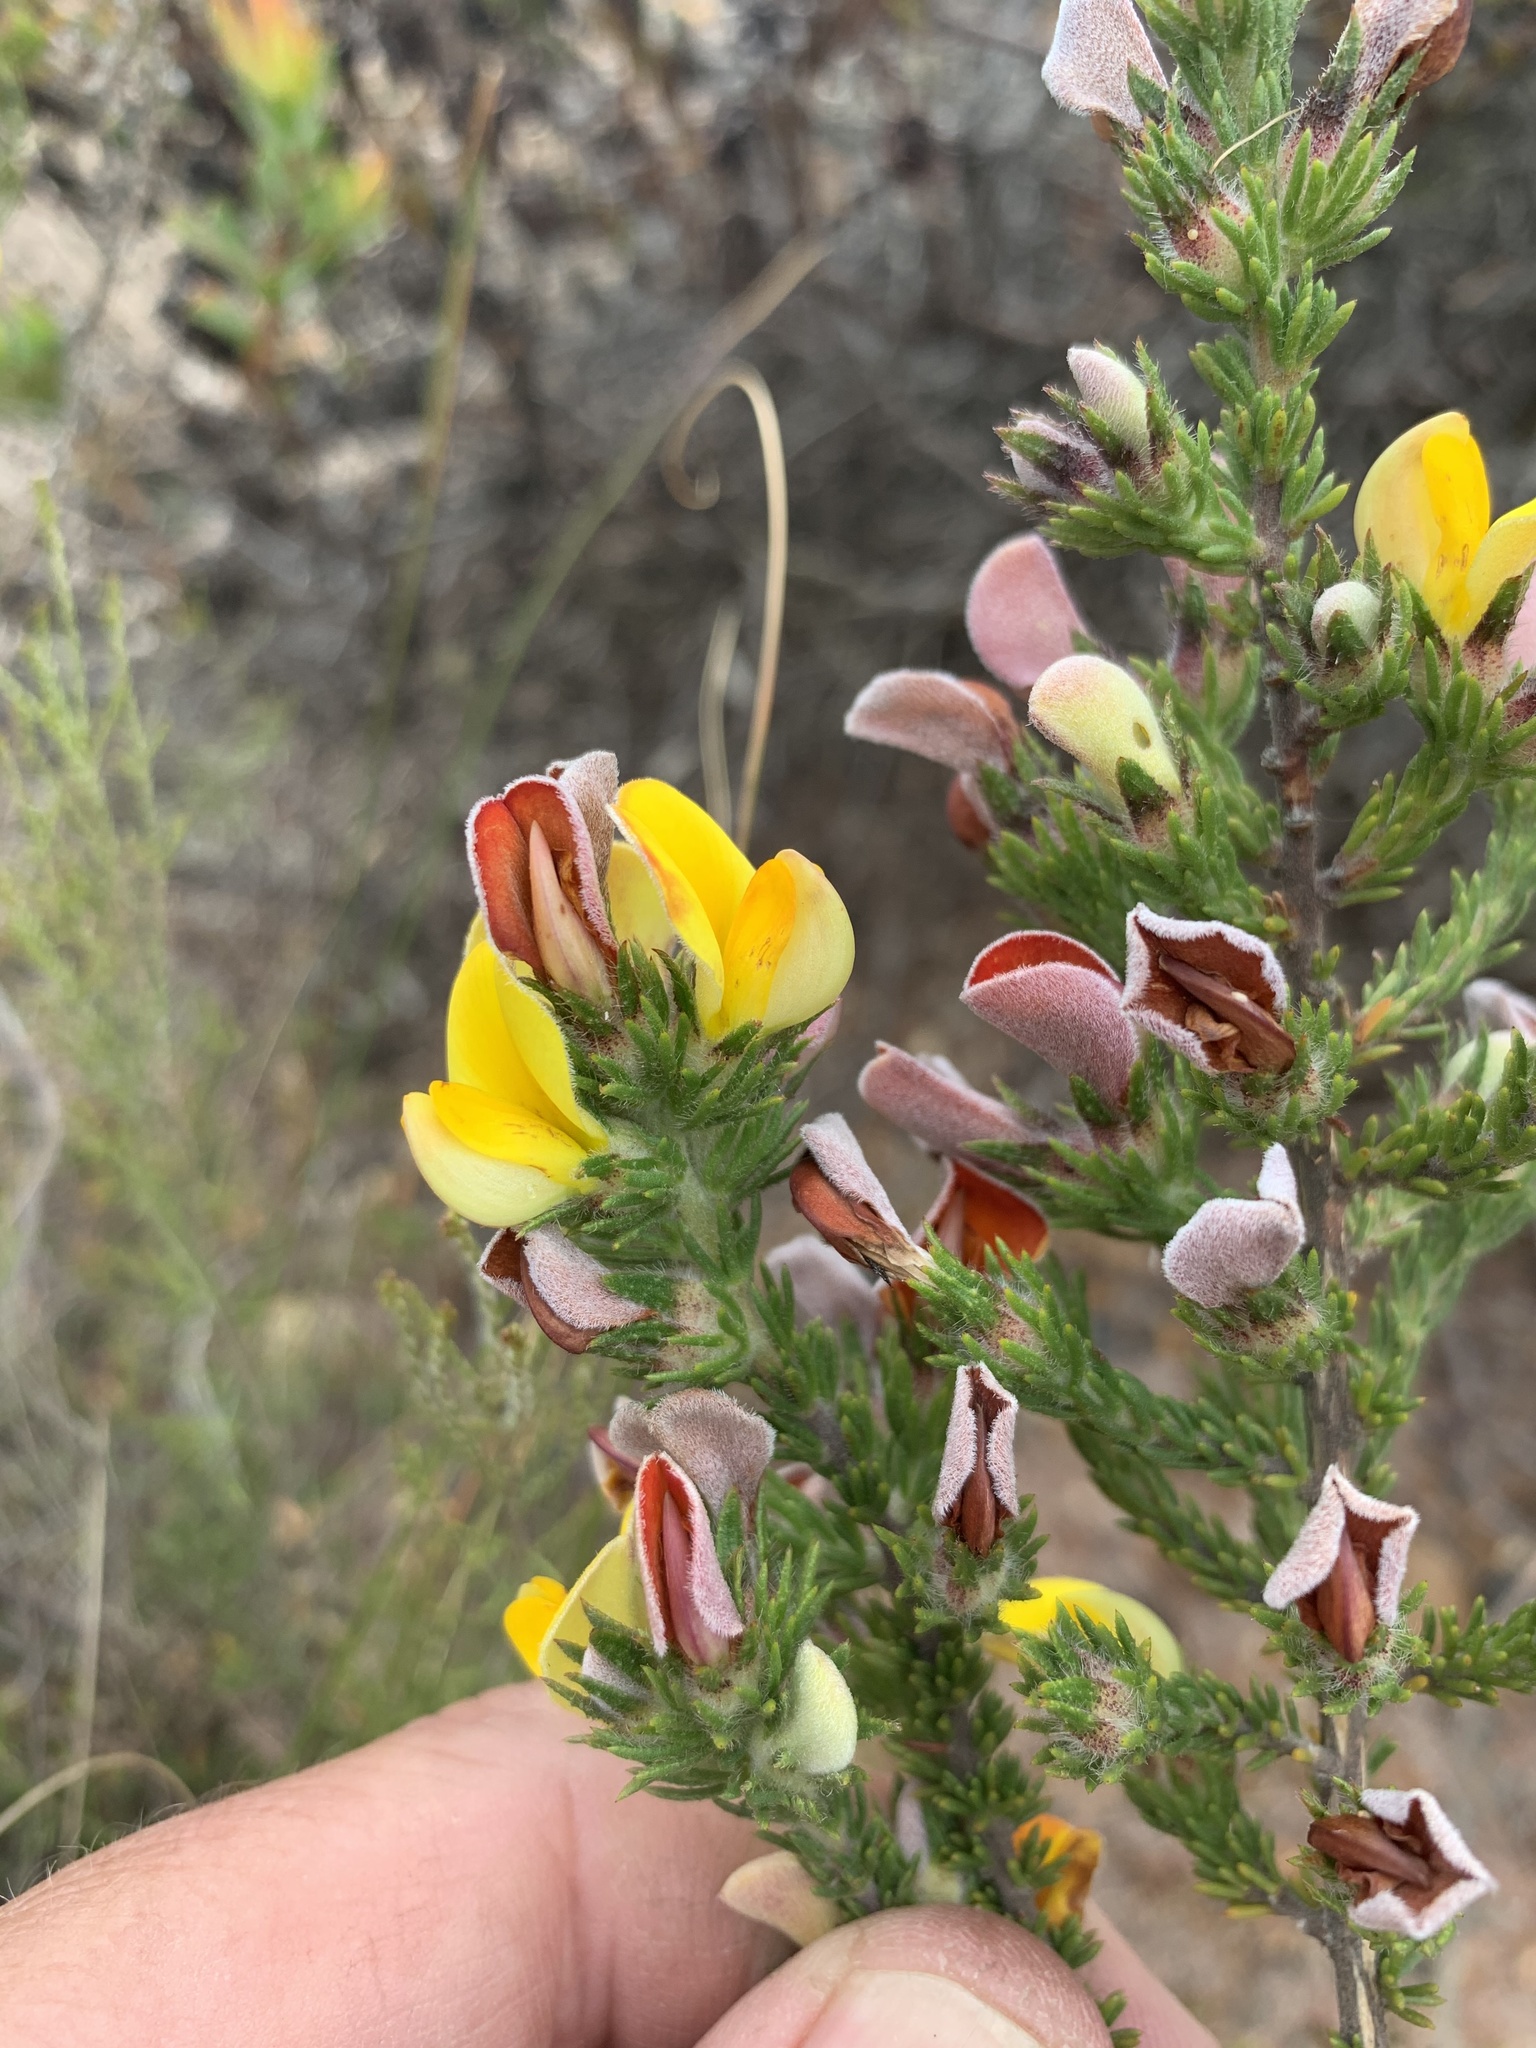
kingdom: Plantae
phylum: Tracheophyta
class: Magnoliopsida
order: Fabales
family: Fabaceae
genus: Aspalathus
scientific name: Aspalathus ciliaris
